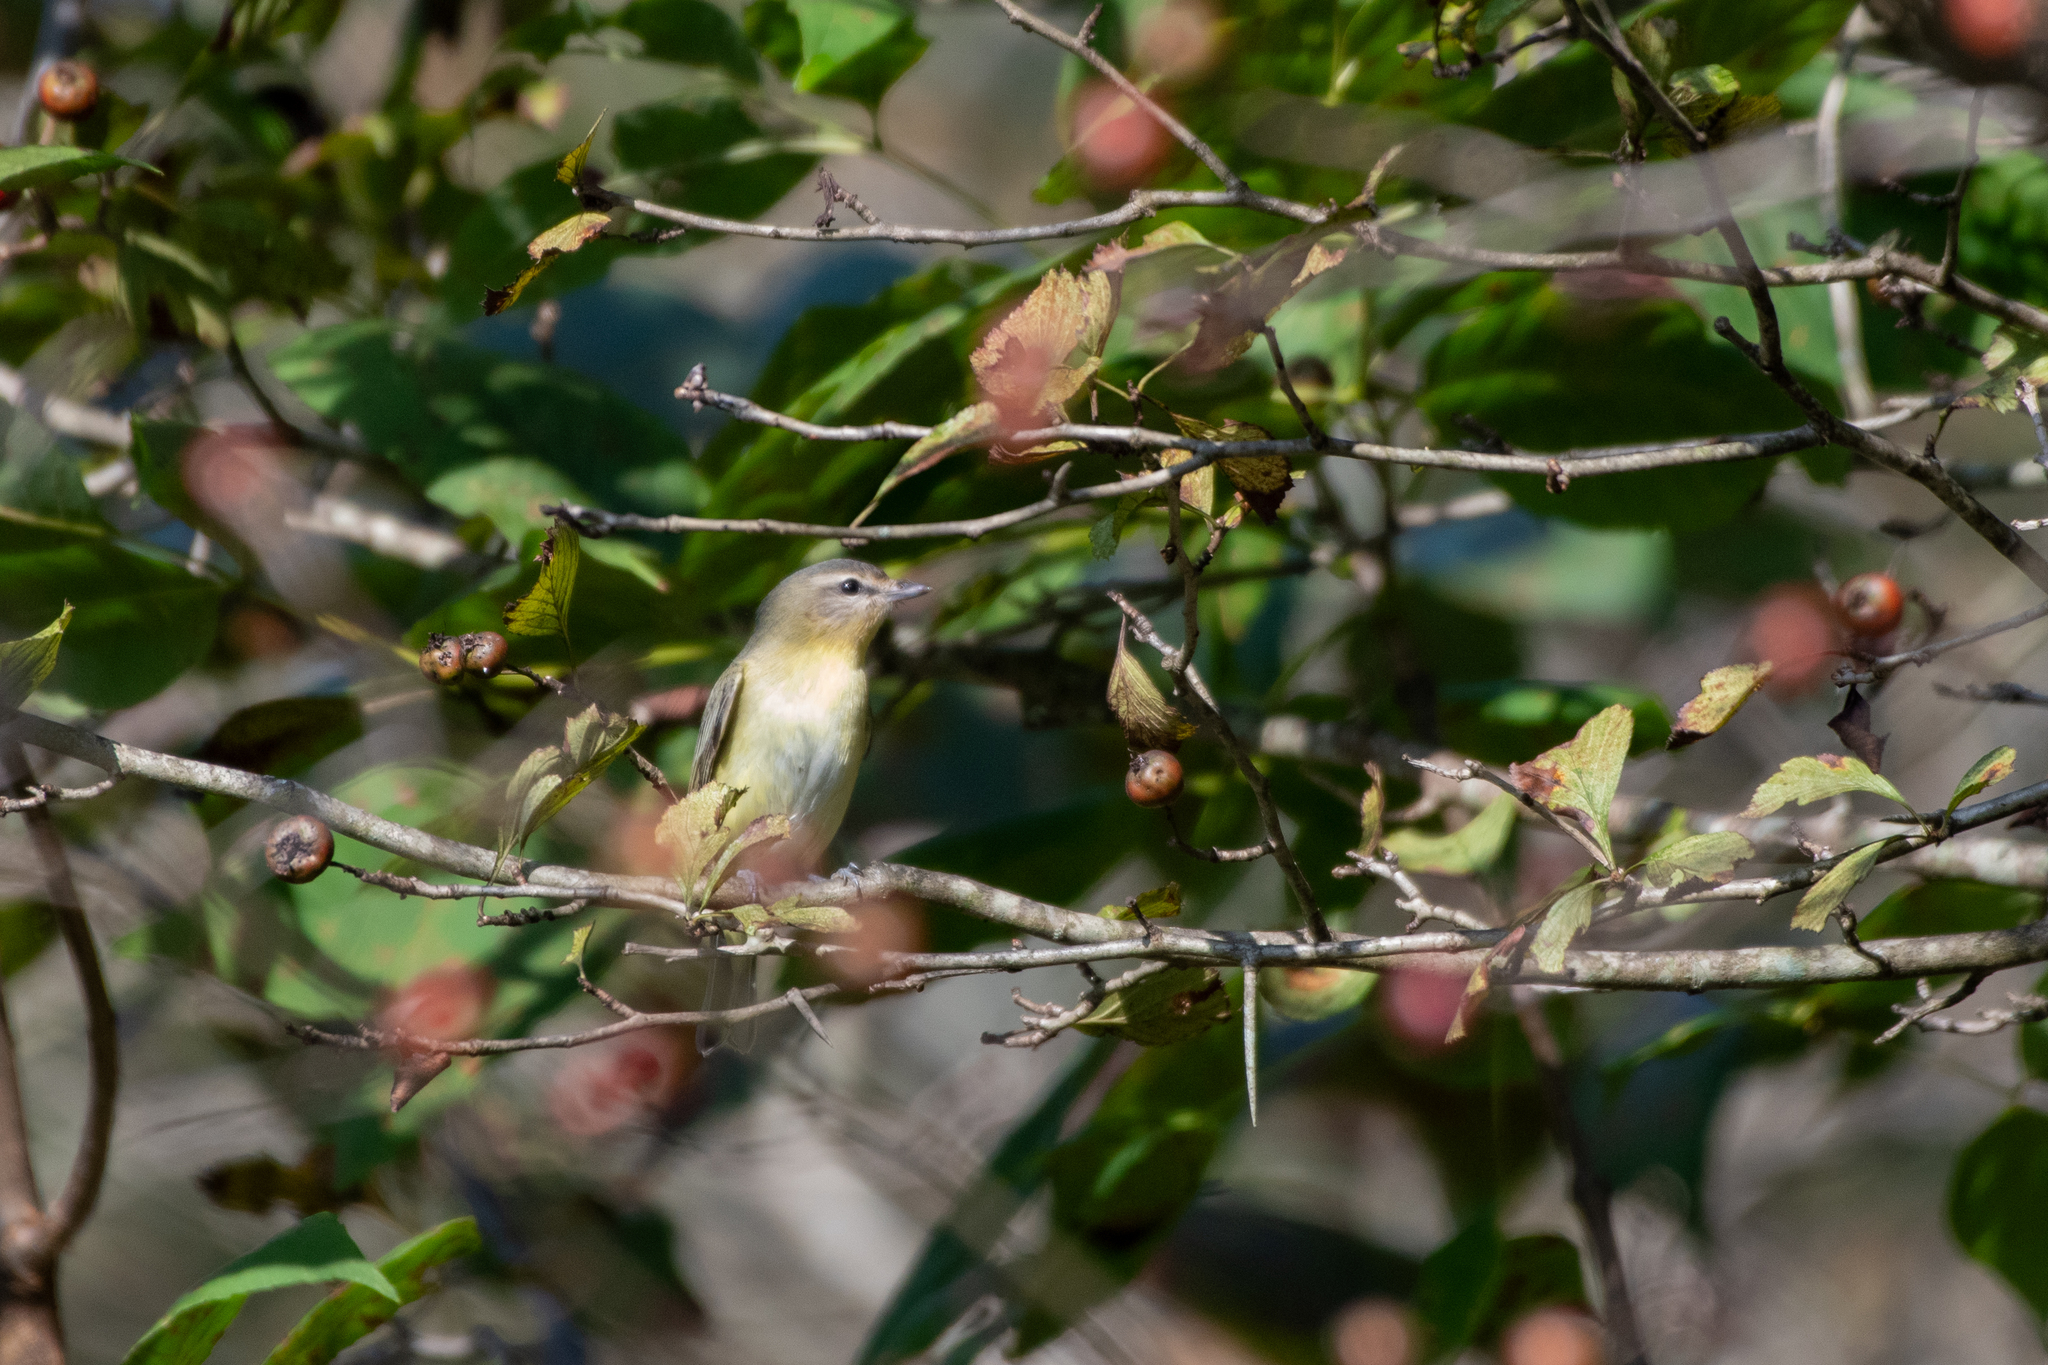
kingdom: Animalia
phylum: Chordata
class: Aves
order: Passeriformes
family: Vireonidae
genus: Vireo
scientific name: Vireo philadelphicus
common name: Philadelphia vireo
